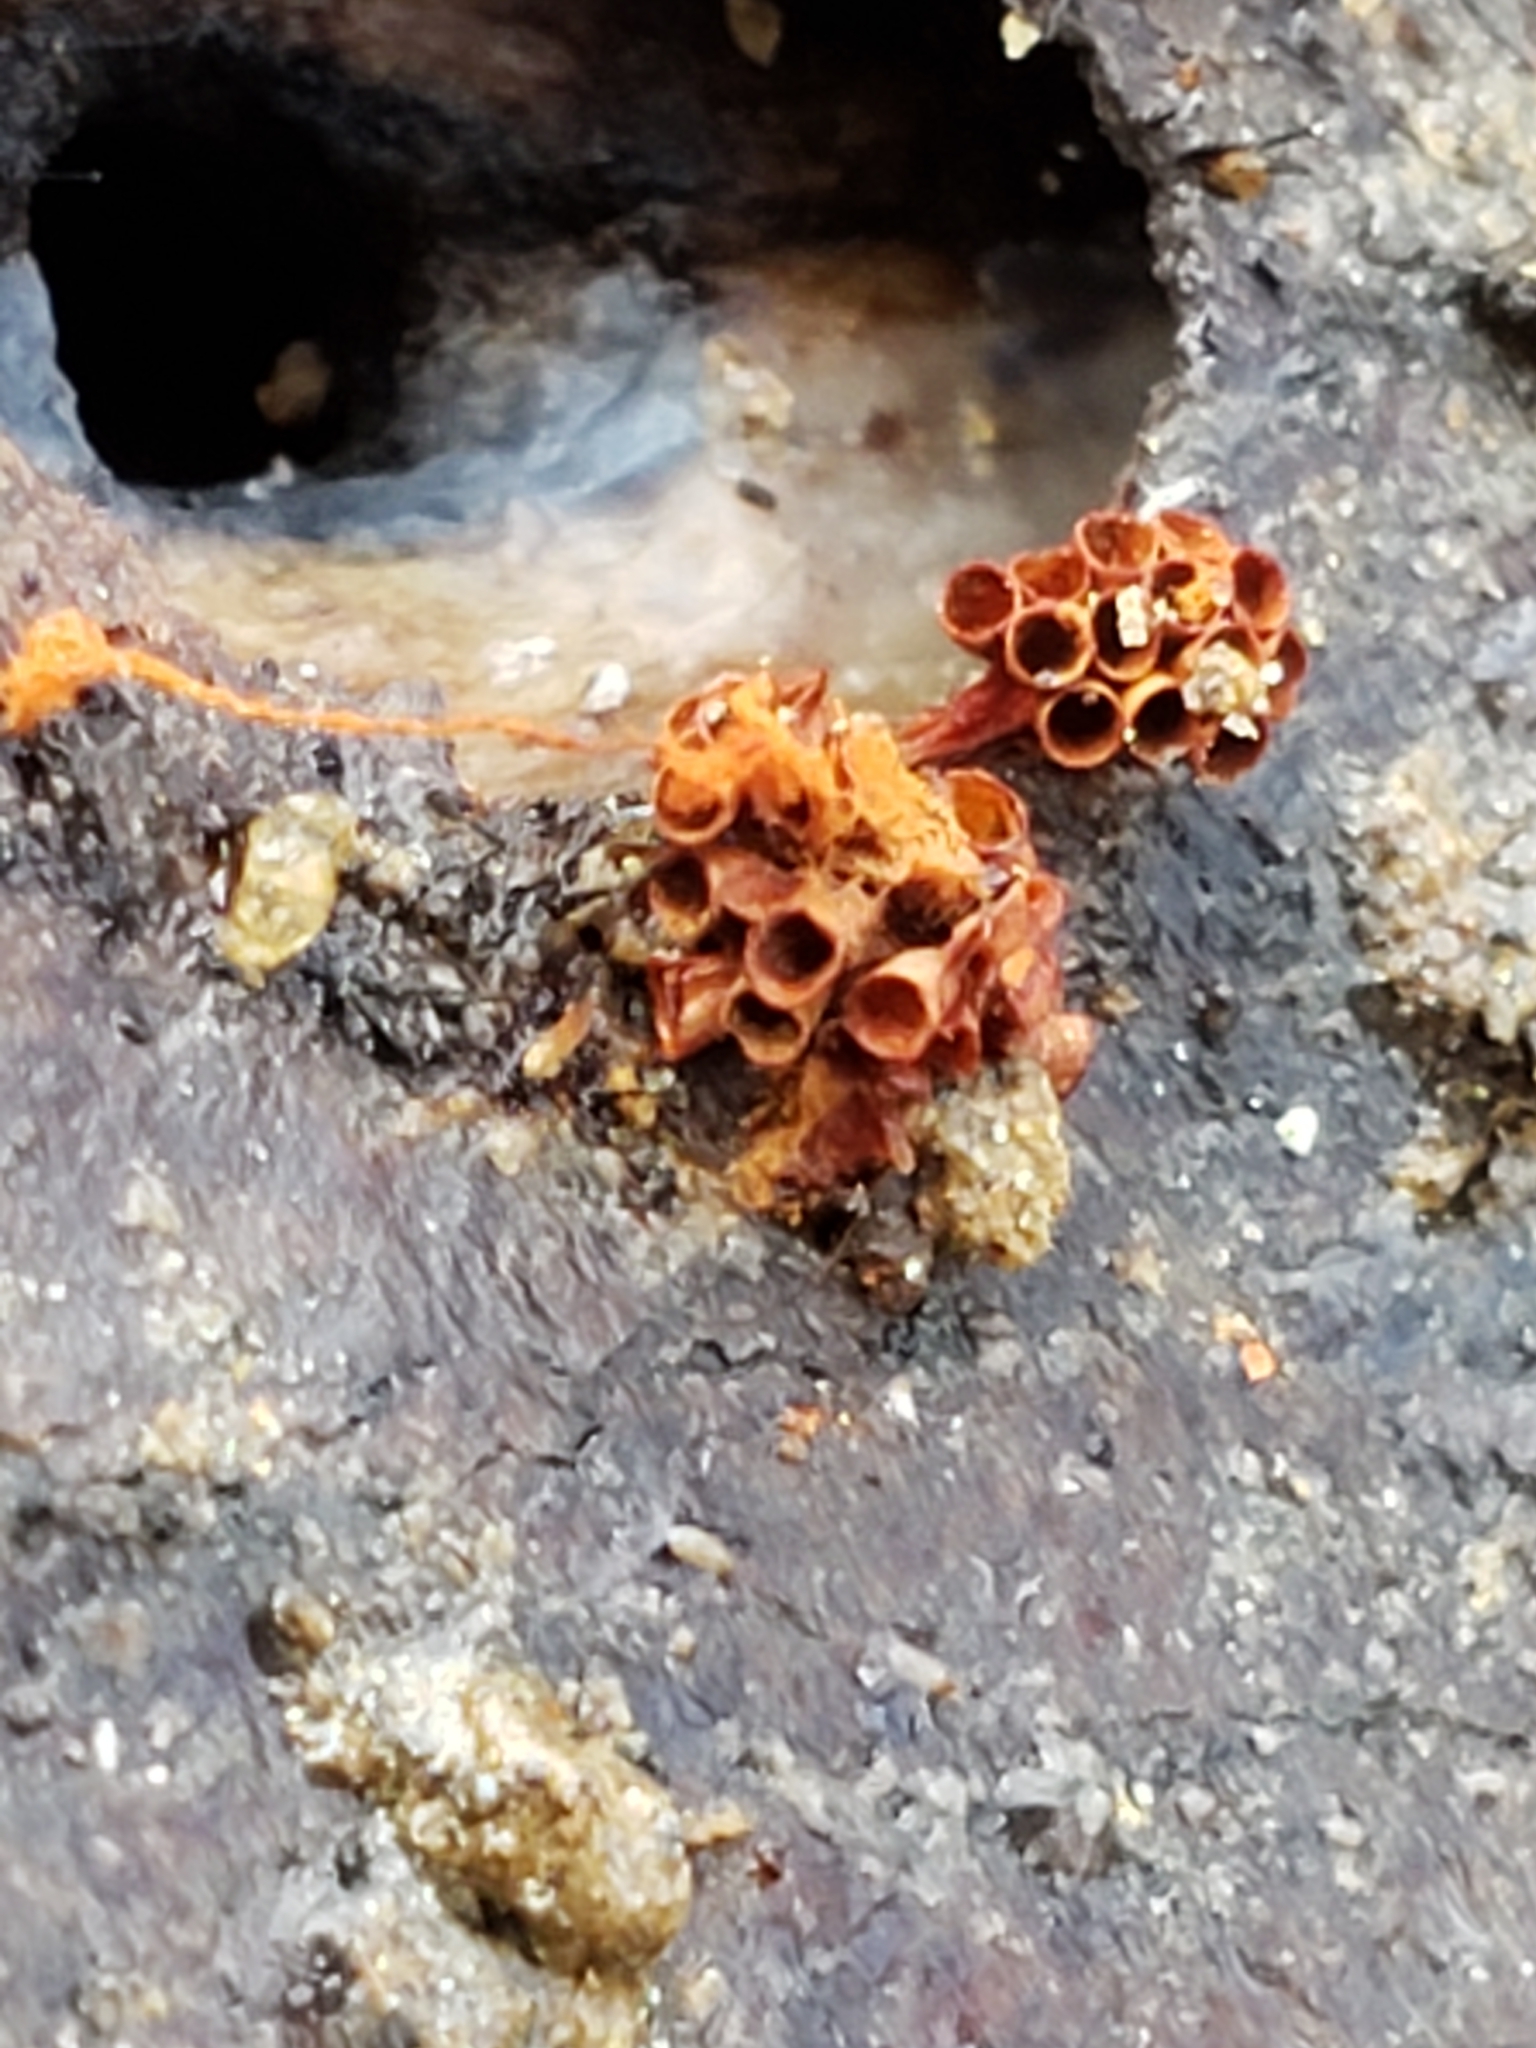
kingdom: Protozoa
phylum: Mycetozoa
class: Myxomycetes
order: Trichiales
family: Trichiaceae
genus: Metatrichia
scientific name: Metatrichia vesparia
